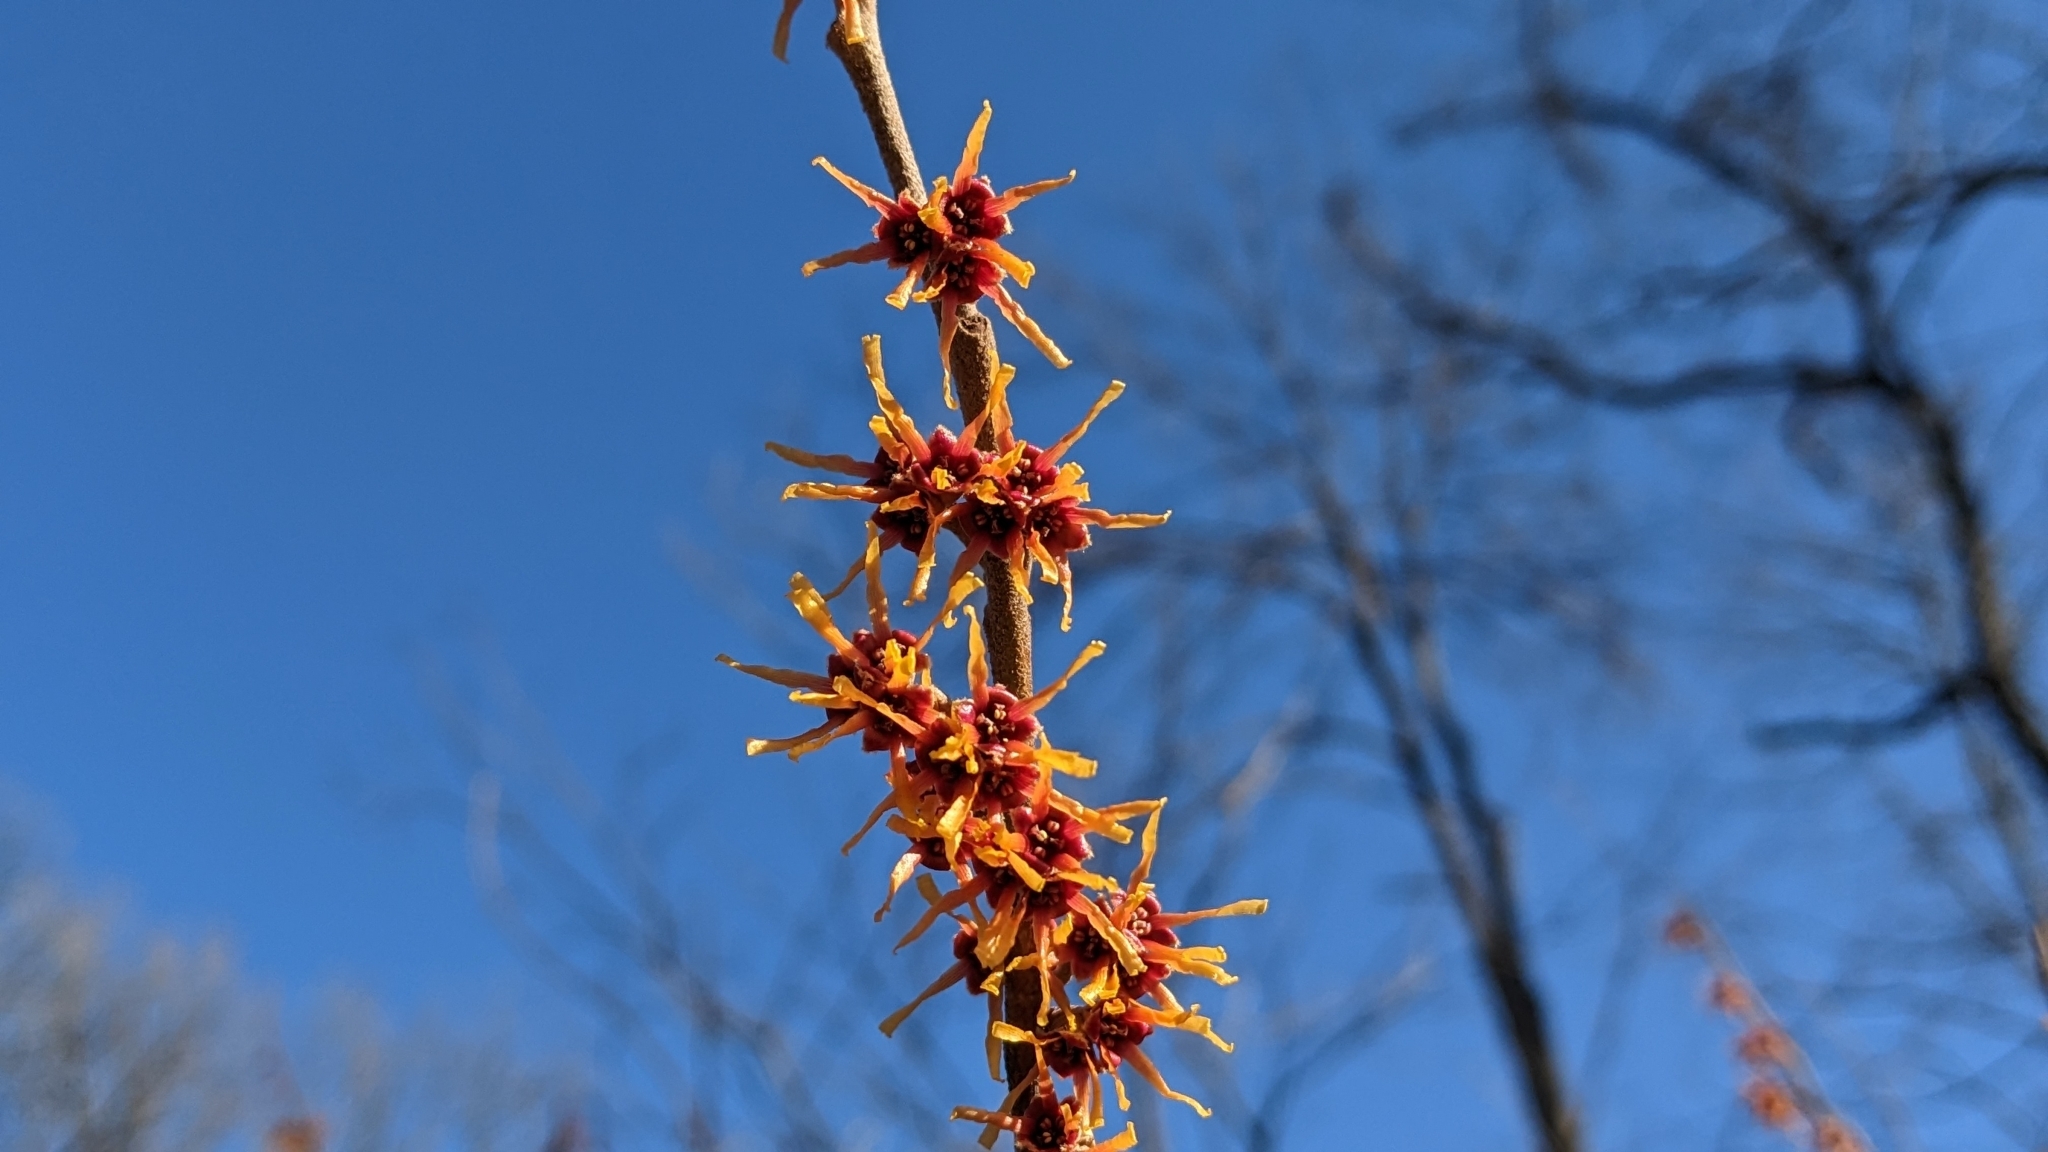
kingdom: Plantae
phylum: Tracheophyta
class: Magnoliopsida
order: Saxifragales
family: Hamamelidaceae
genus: Hamamelis
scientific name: Hamamelis vernalis
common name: Ozark witch-hazel
